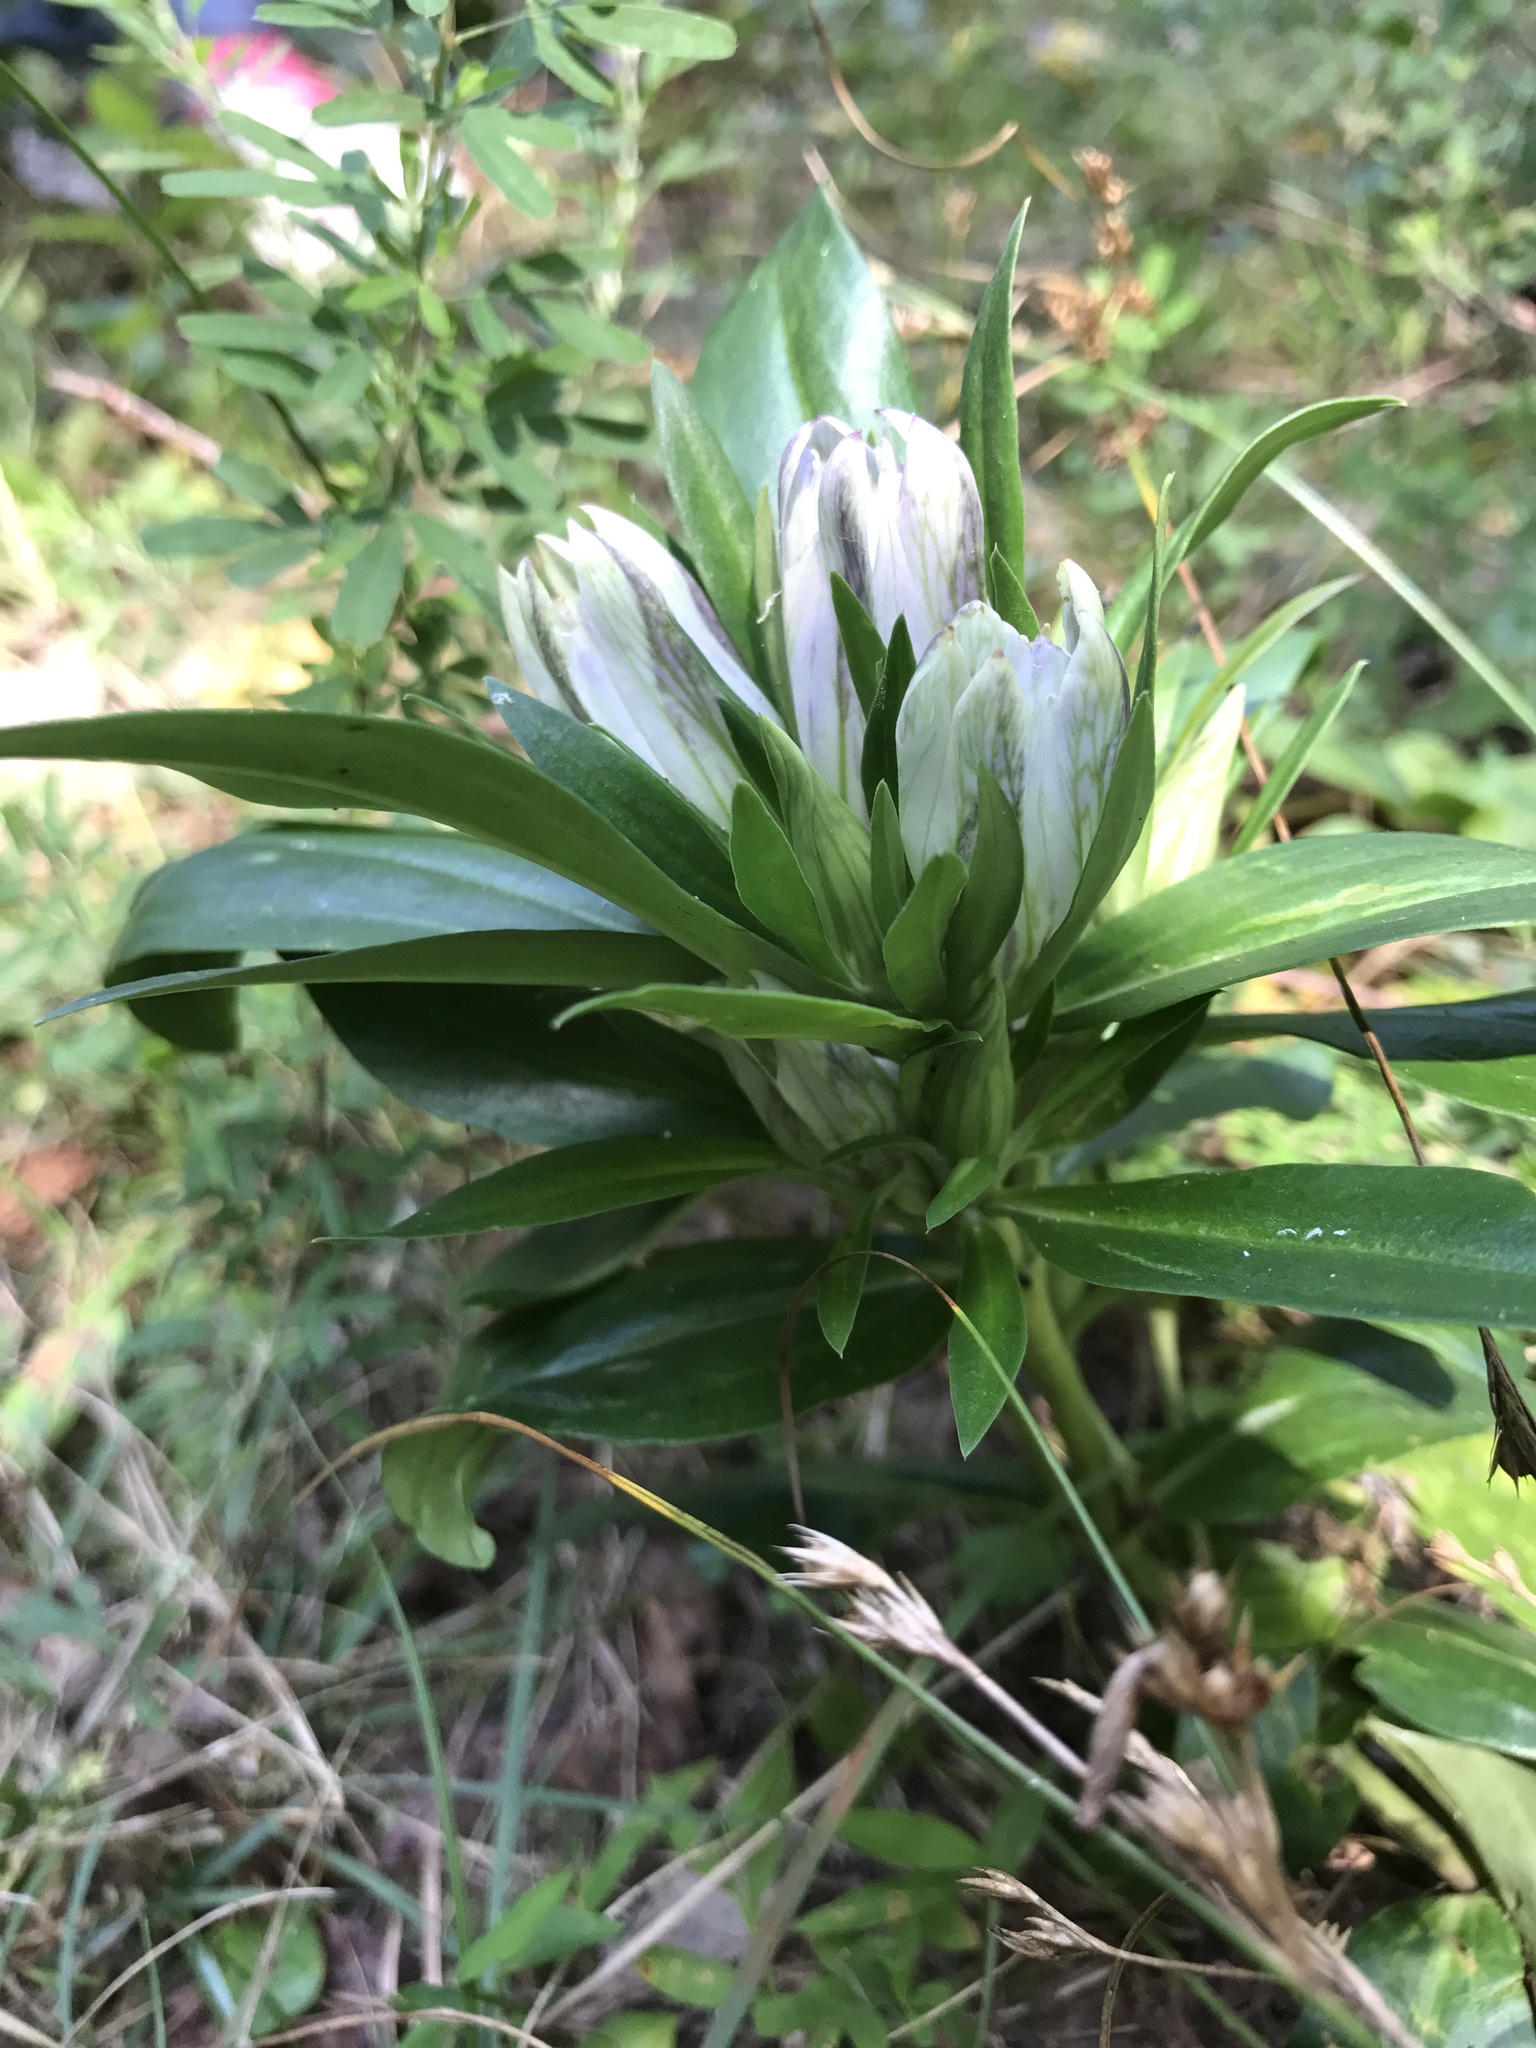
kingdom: Plantae
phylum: Tracheophyta
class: Magnoliopsida
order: Gentianales
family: Gentianaceae
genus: Gentiana
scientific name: Gentiana villosa
